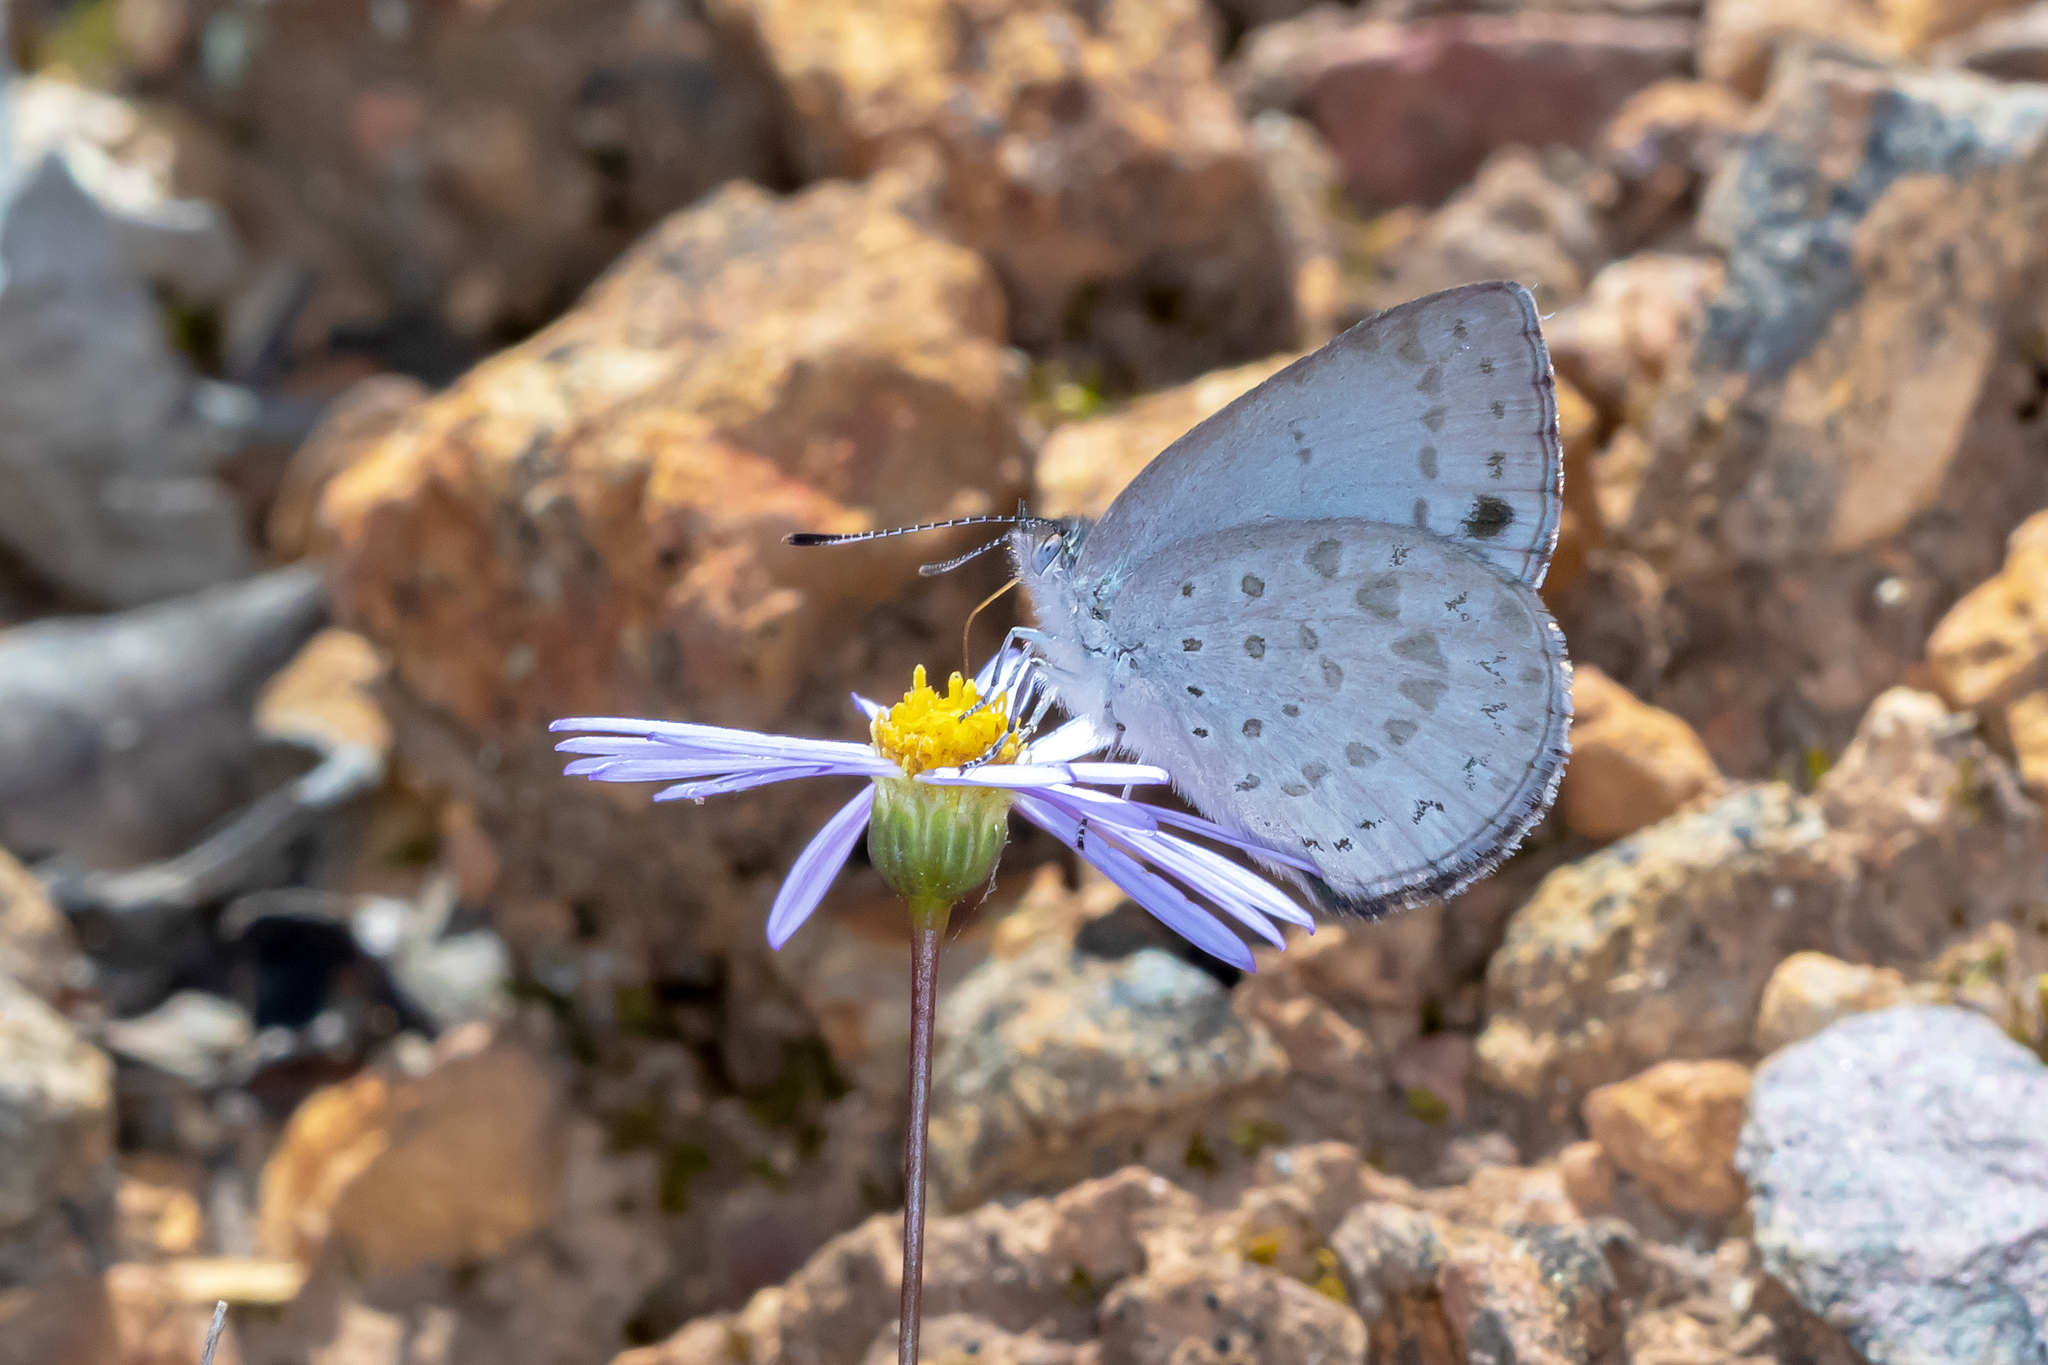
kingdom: Animalia
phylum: Arthropoda
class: Insecta
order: Lepidoptera
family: Lycaenidae
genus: Candalides
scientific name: Candalides
